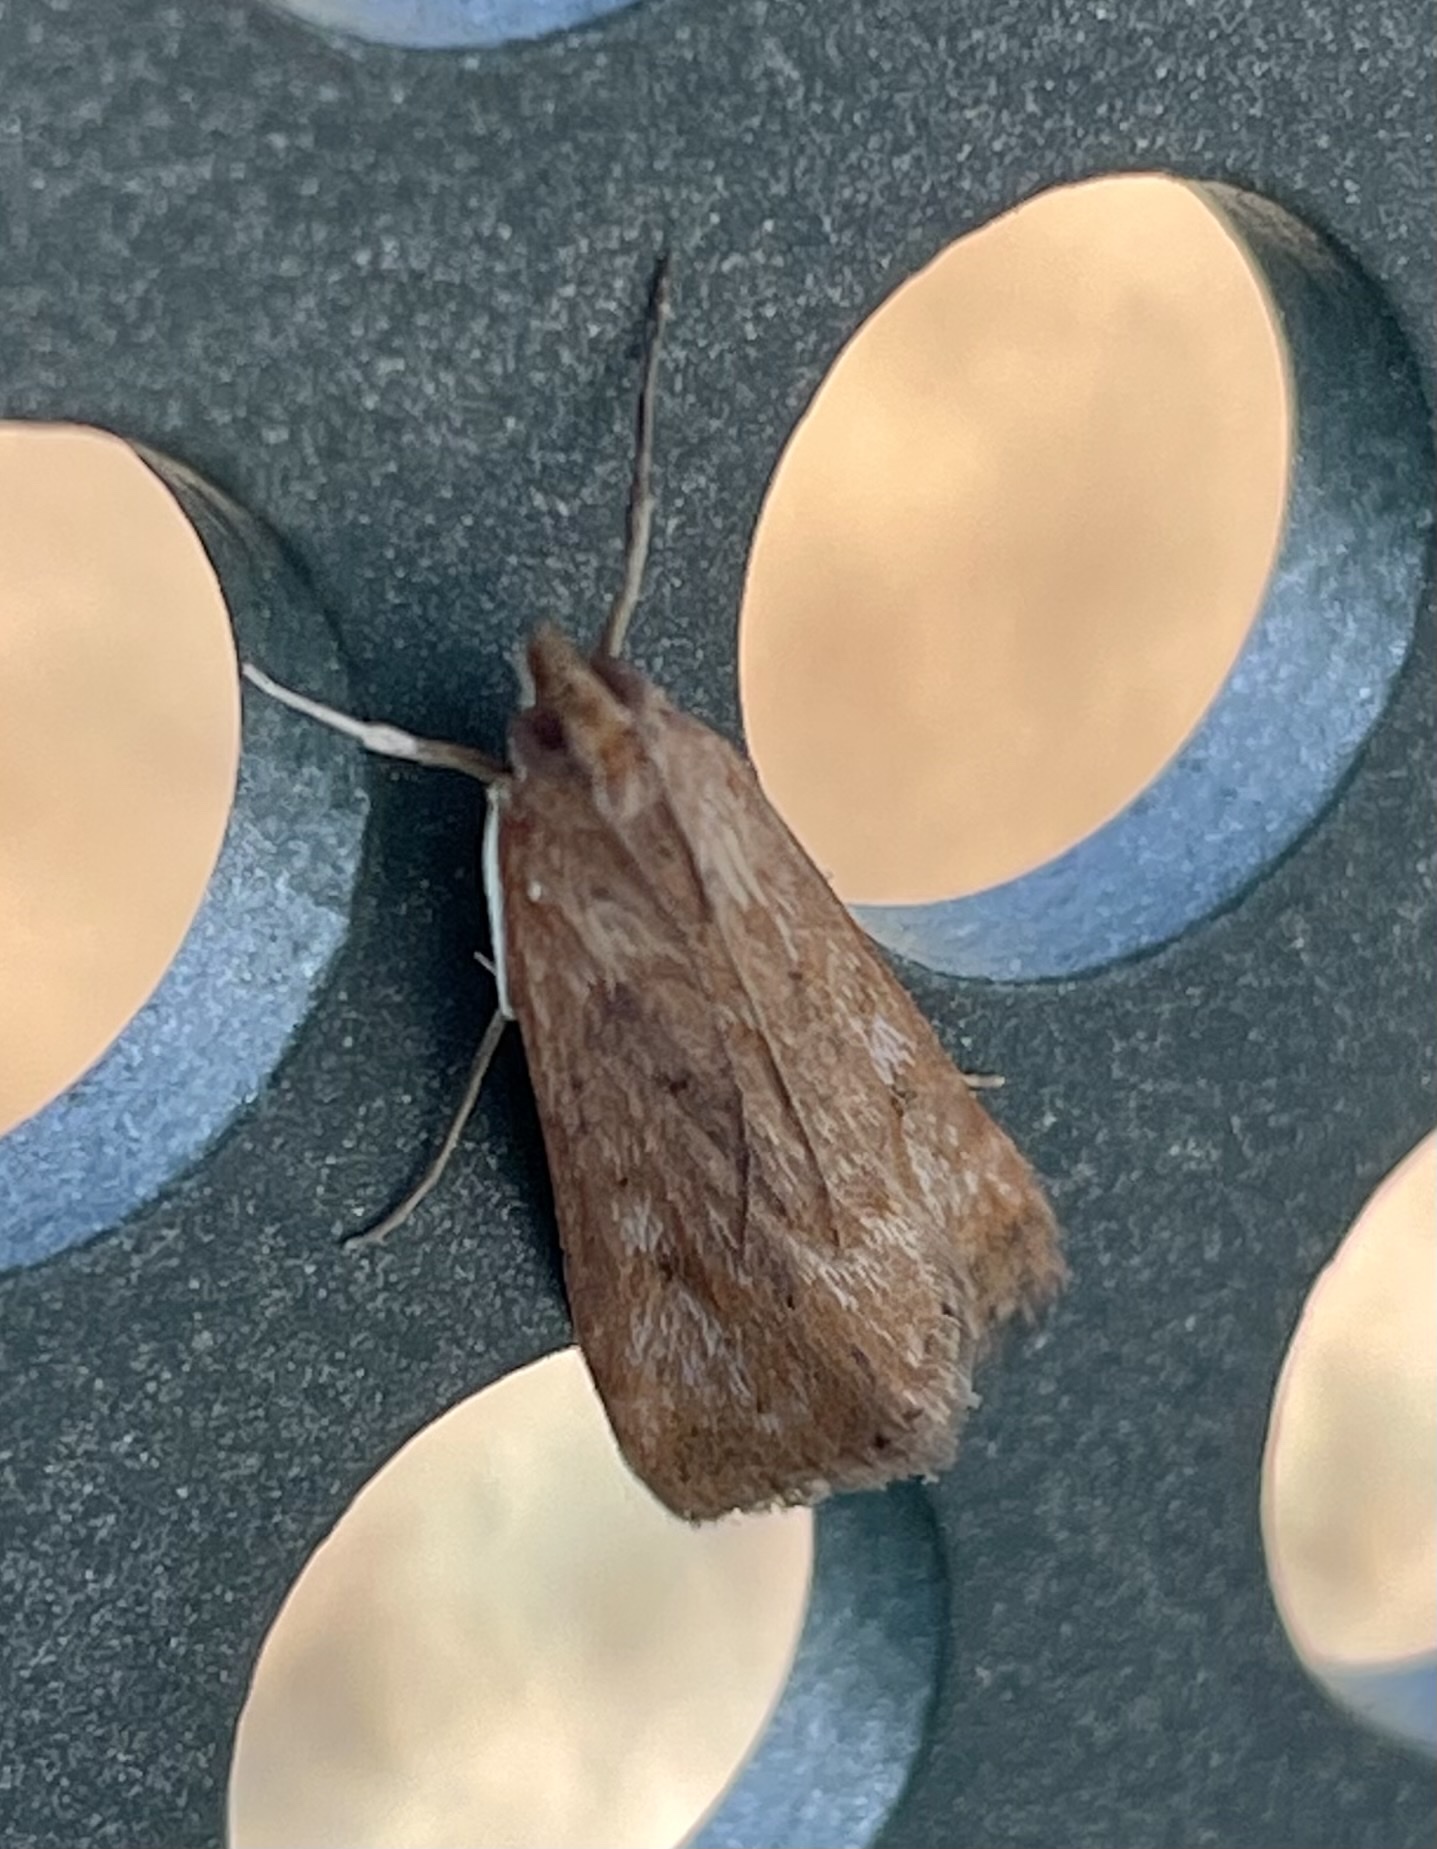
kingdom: Animalia
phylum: Arthropoda
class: Insecta
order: Lepidoptera
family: Crambidae
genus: Achyra
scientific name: Achyra affinitalis
